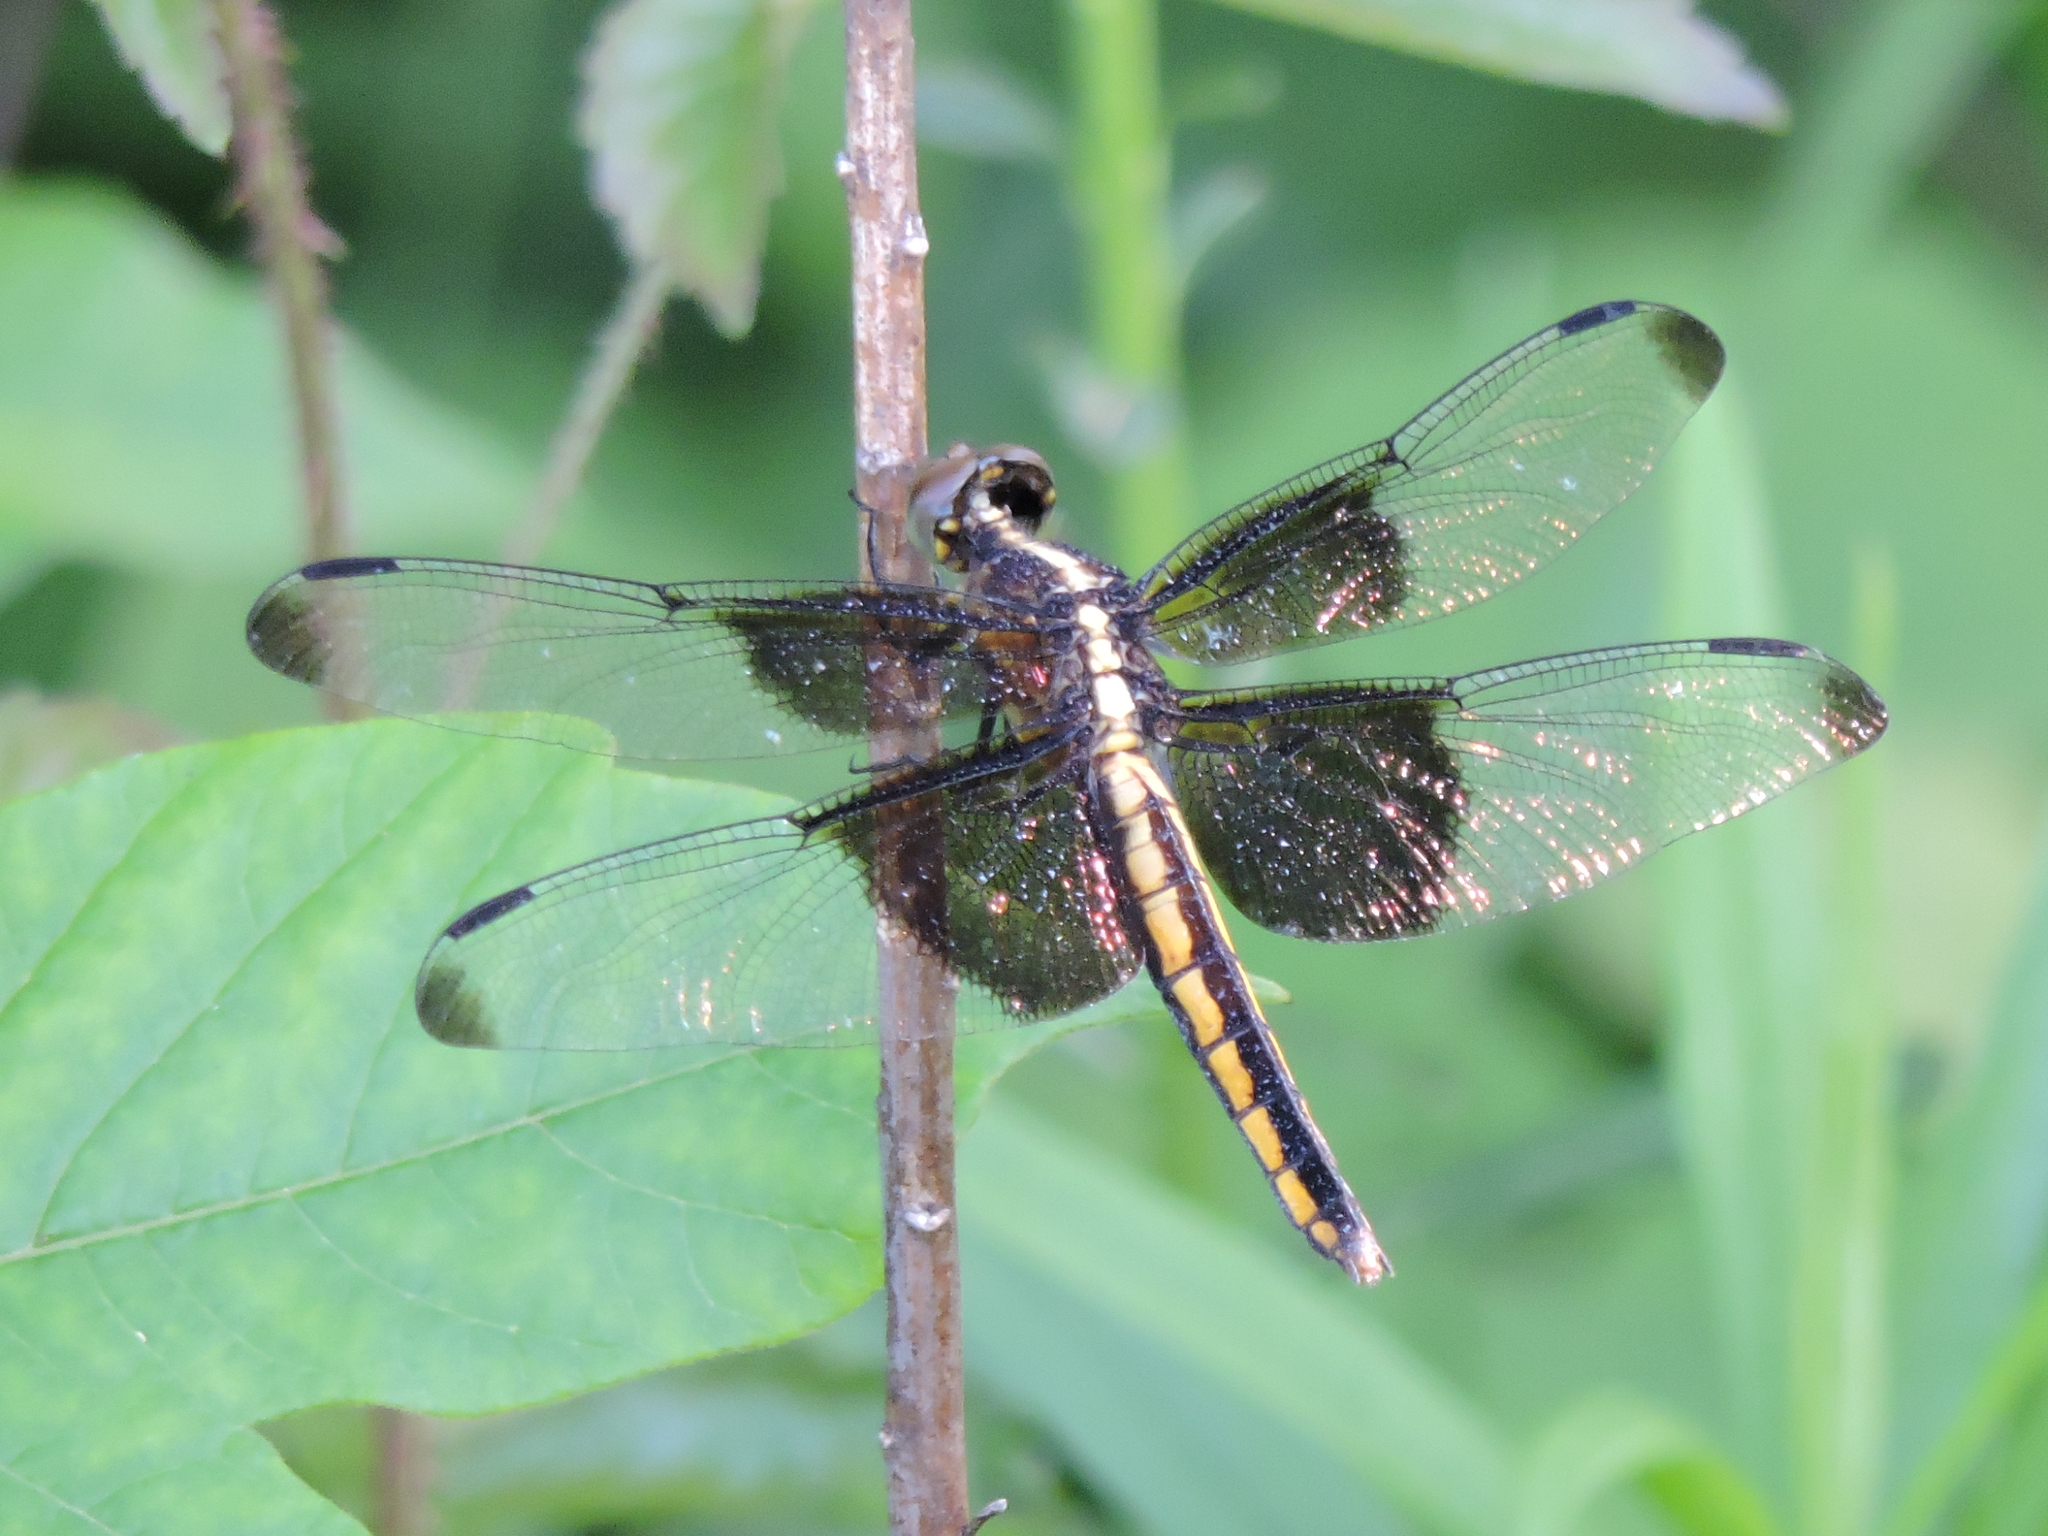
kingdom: Animalia
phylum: Arthropoda
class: Insecta
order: Odonata
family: Libellulidae
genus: Libellula
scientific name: Libellula luctuosa
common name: Widow skimmer
